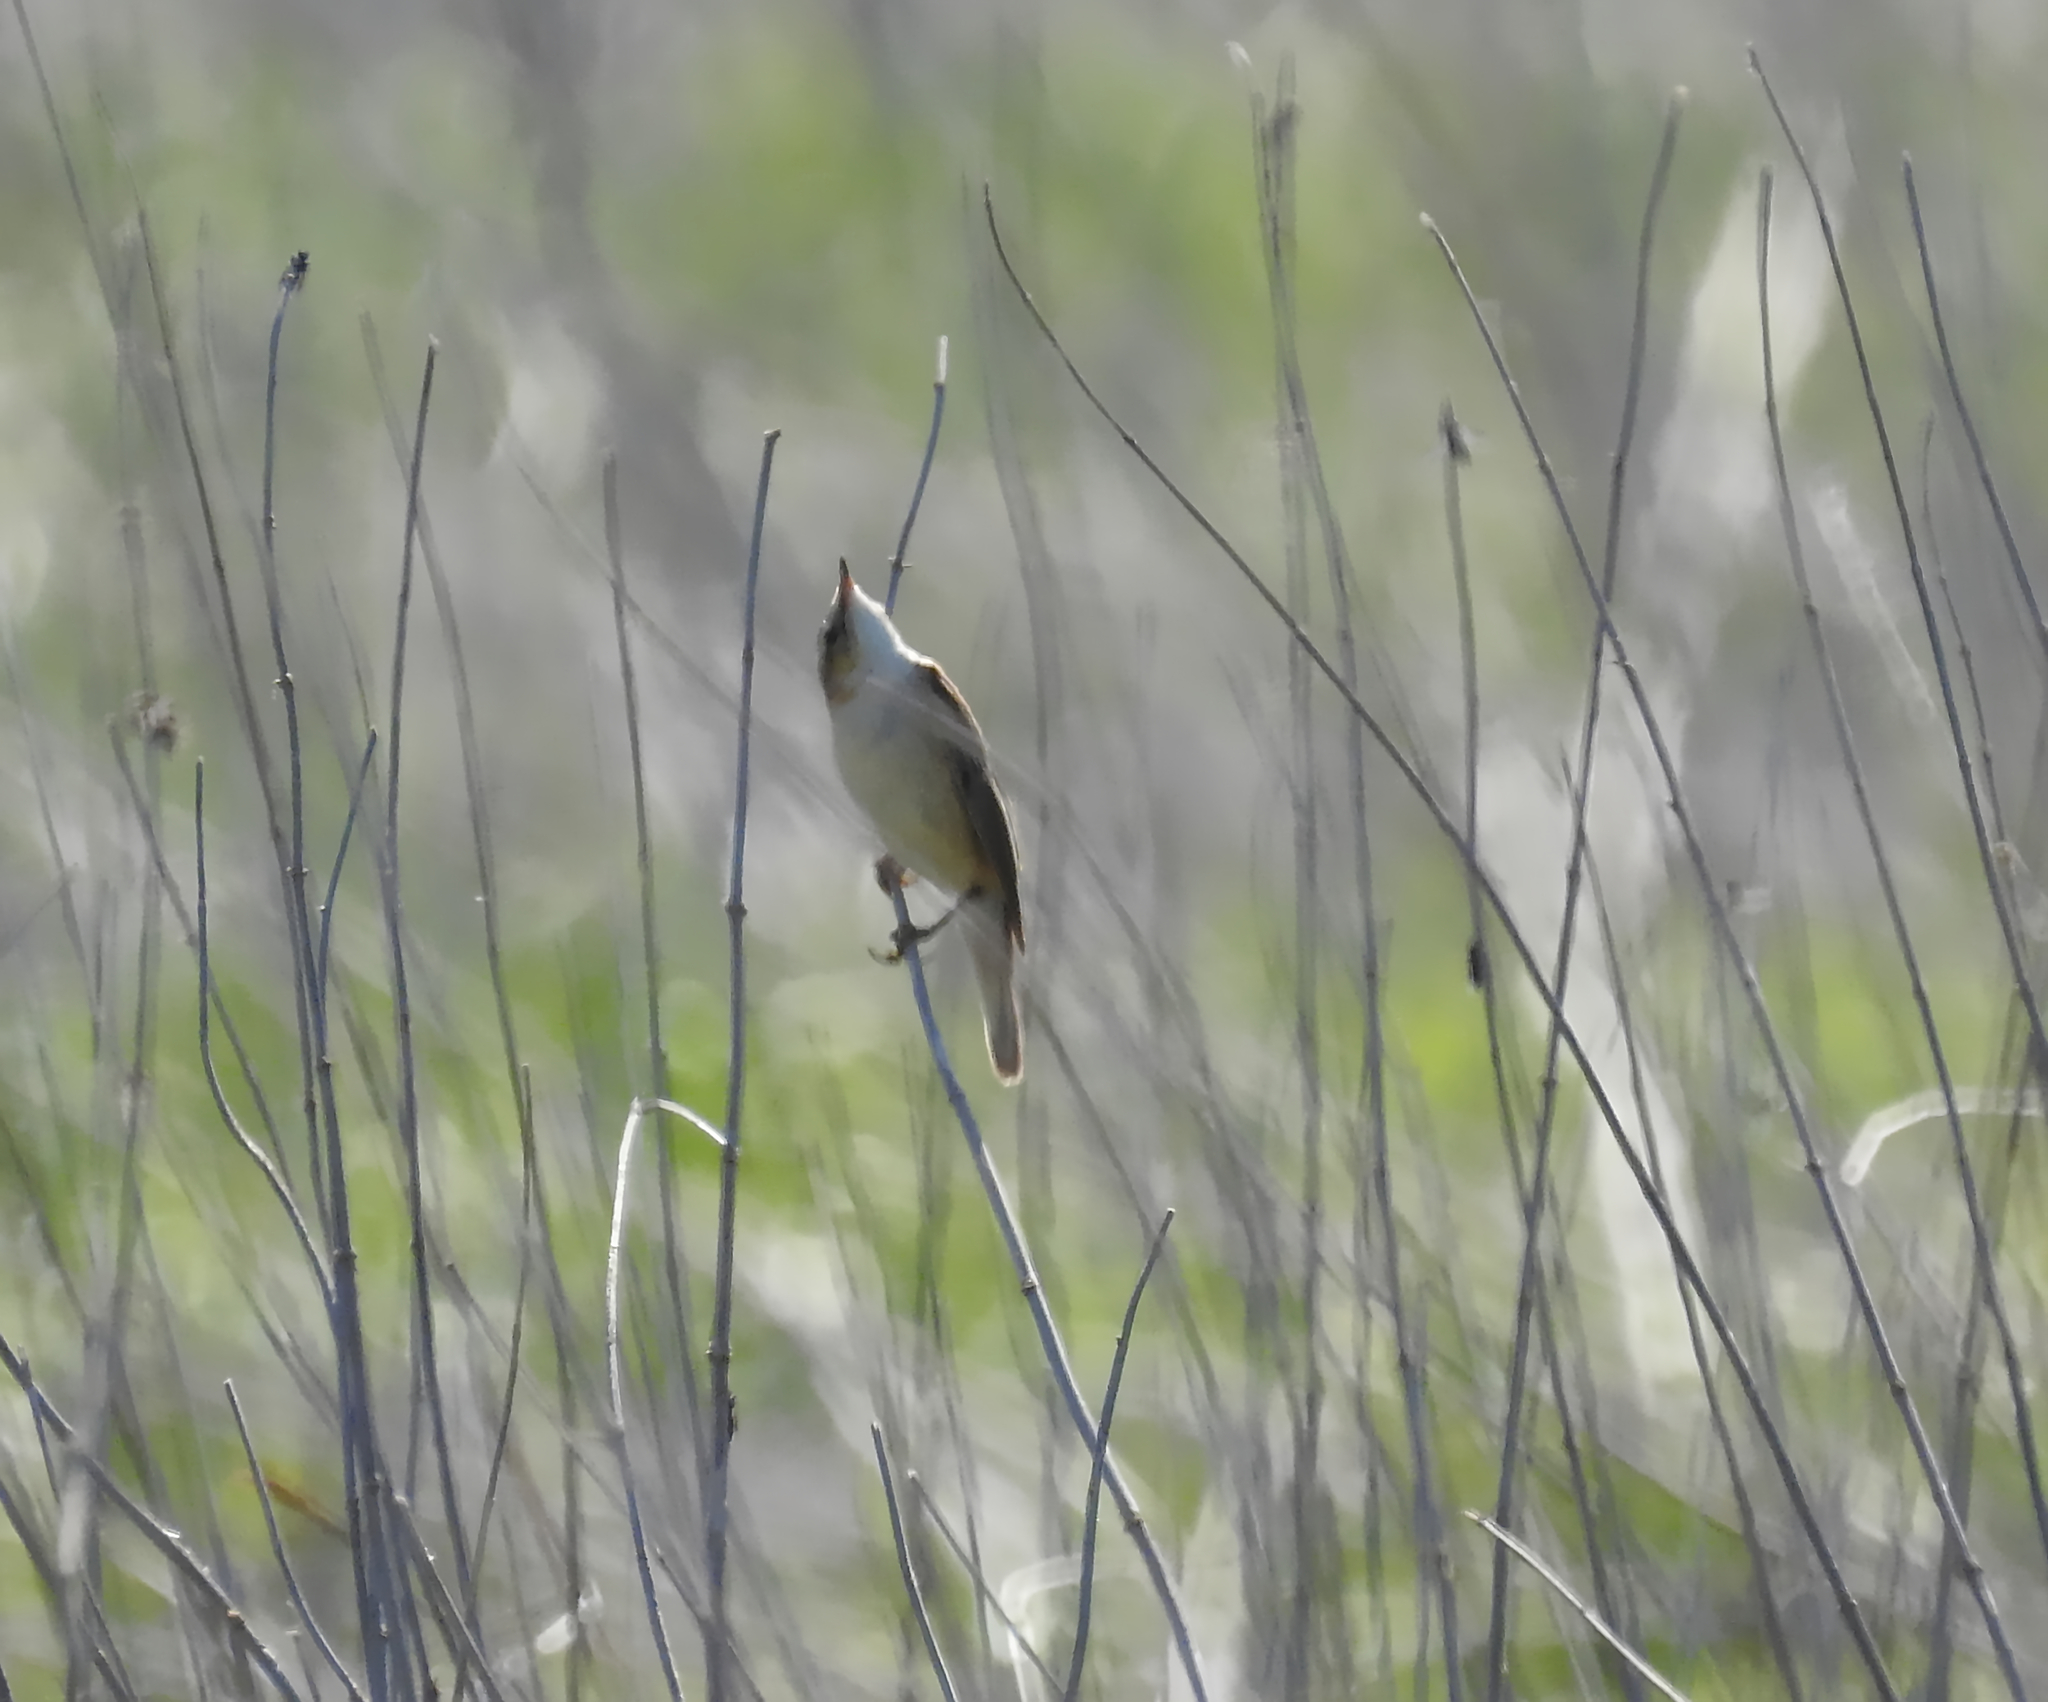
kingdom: Animalia
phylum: Chordata
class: Aves
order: Passeriformes
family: Acrocephalidae
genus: Acrocephalus
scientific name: Acrocephalus schoenobaenus
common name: Sedge warbler
